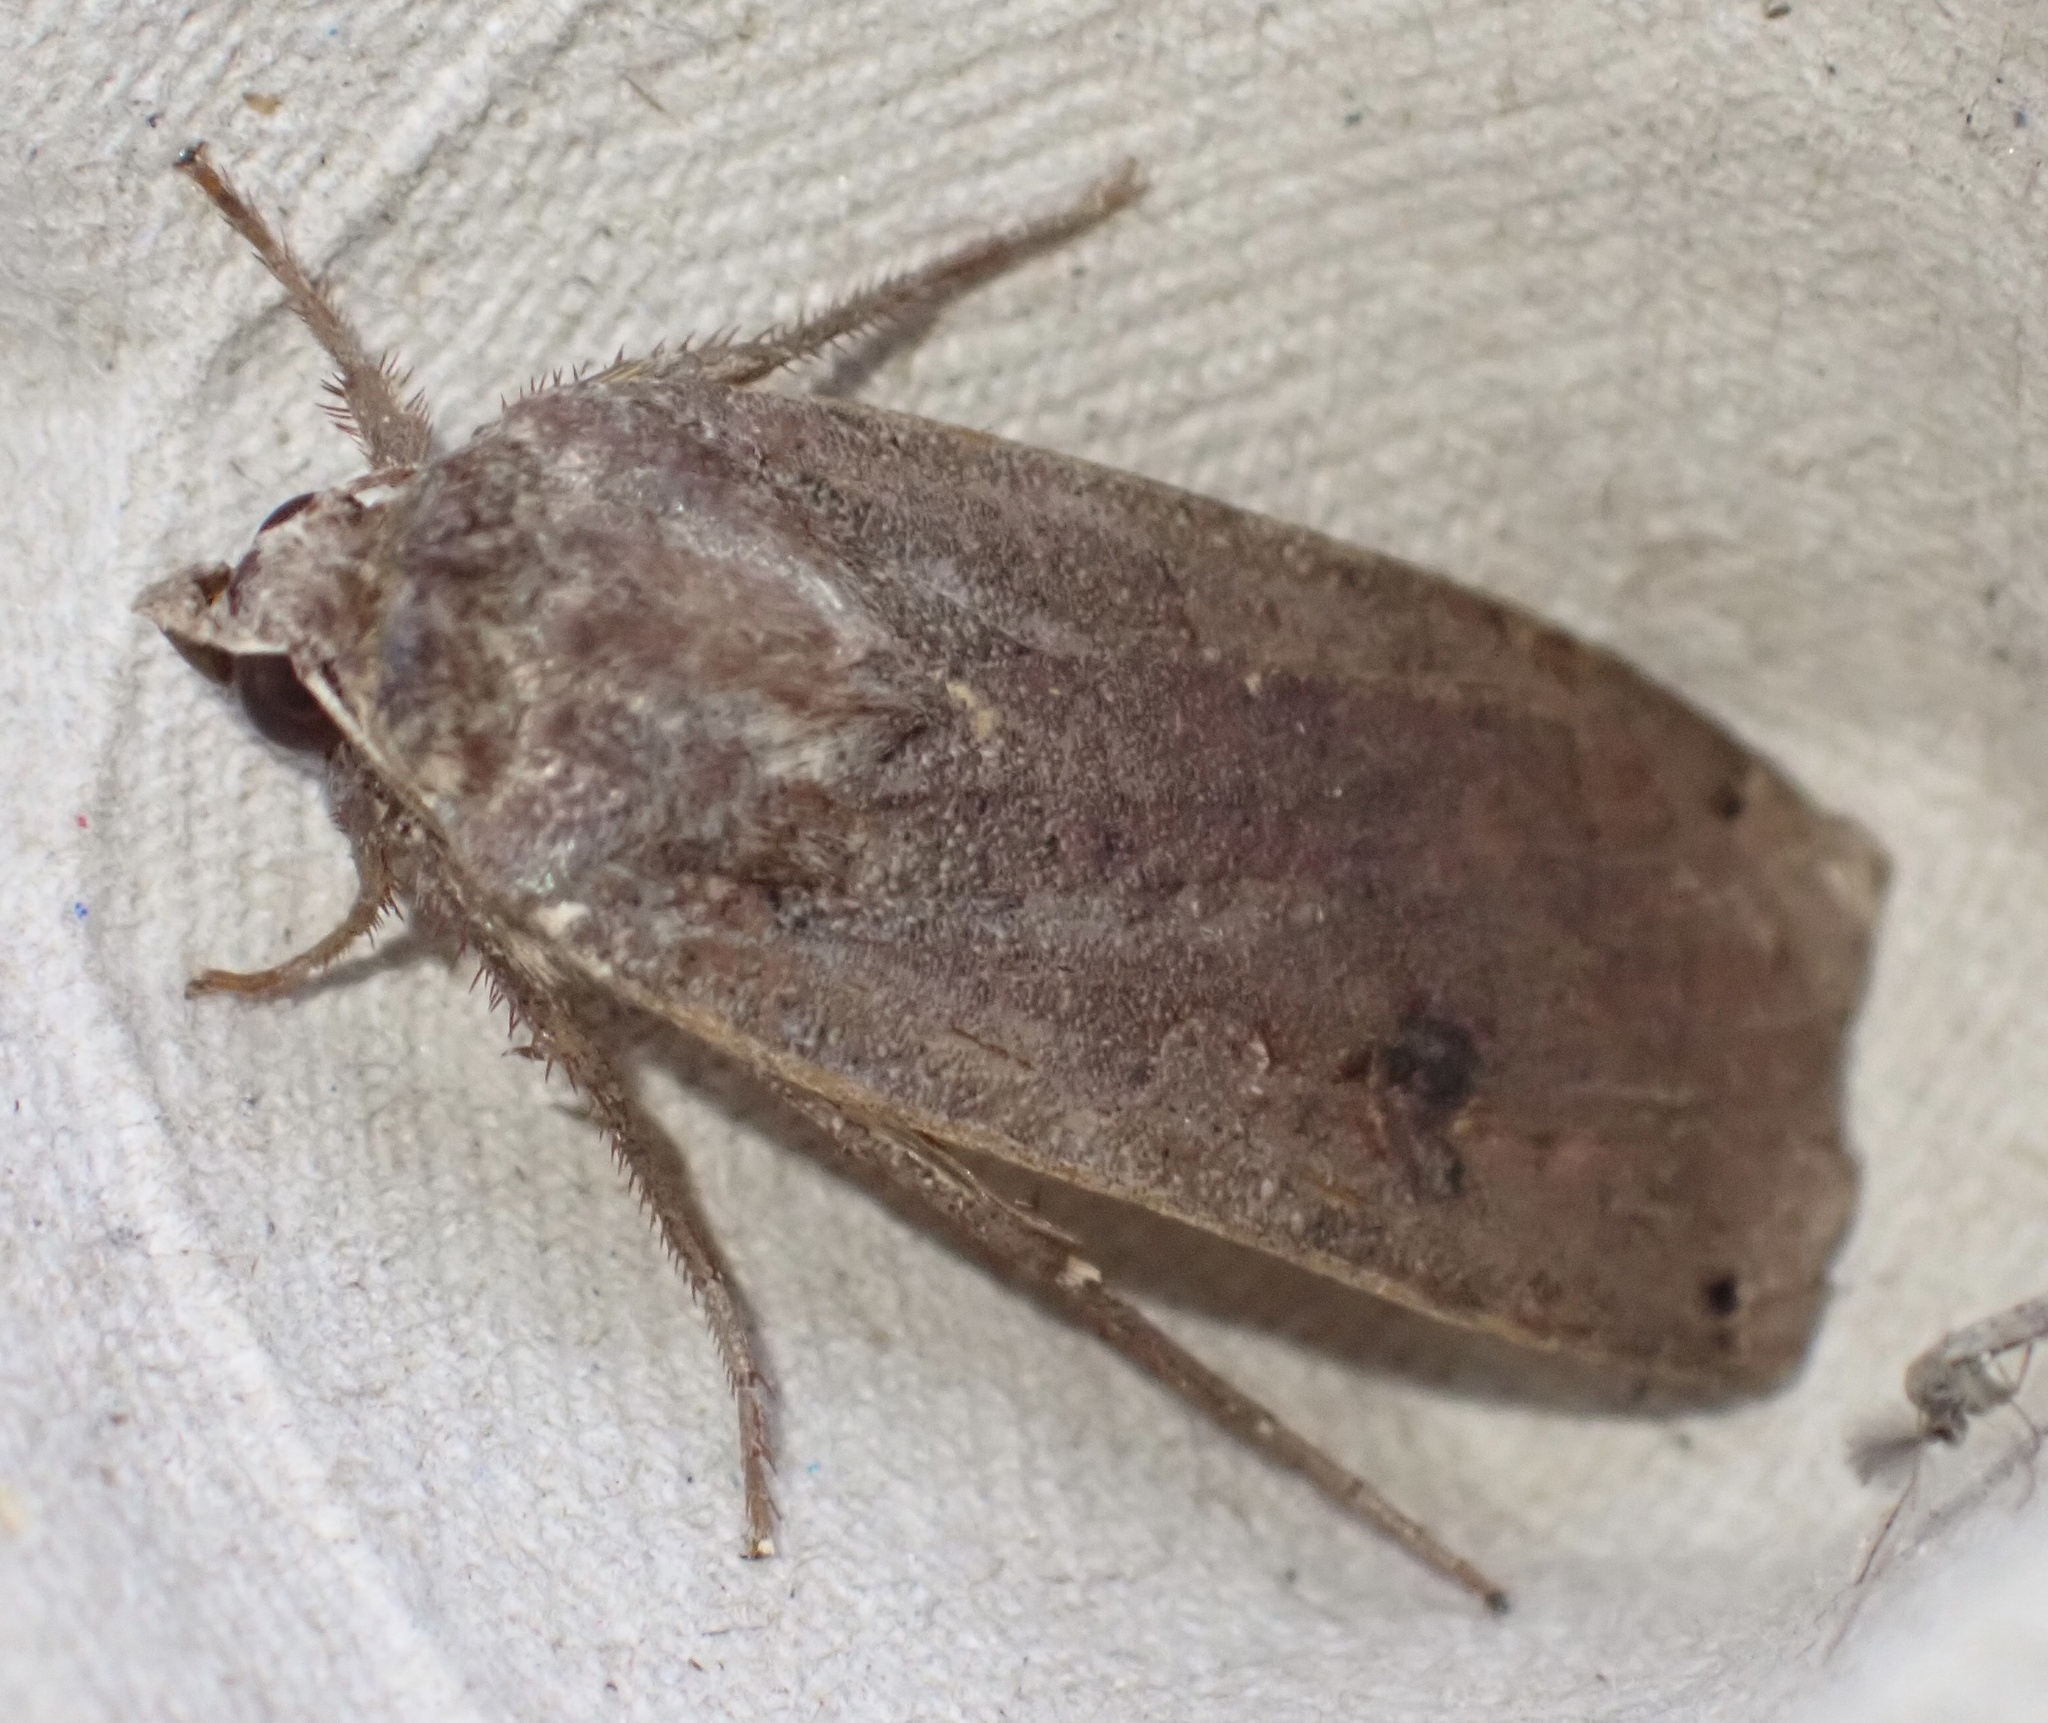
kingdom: Animalia
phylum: Arthropoda
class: Insecta
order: Lepidoptera
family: Noctuidae
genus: Noctua
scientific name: Noctua pronuba
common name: Large yellow underwing
